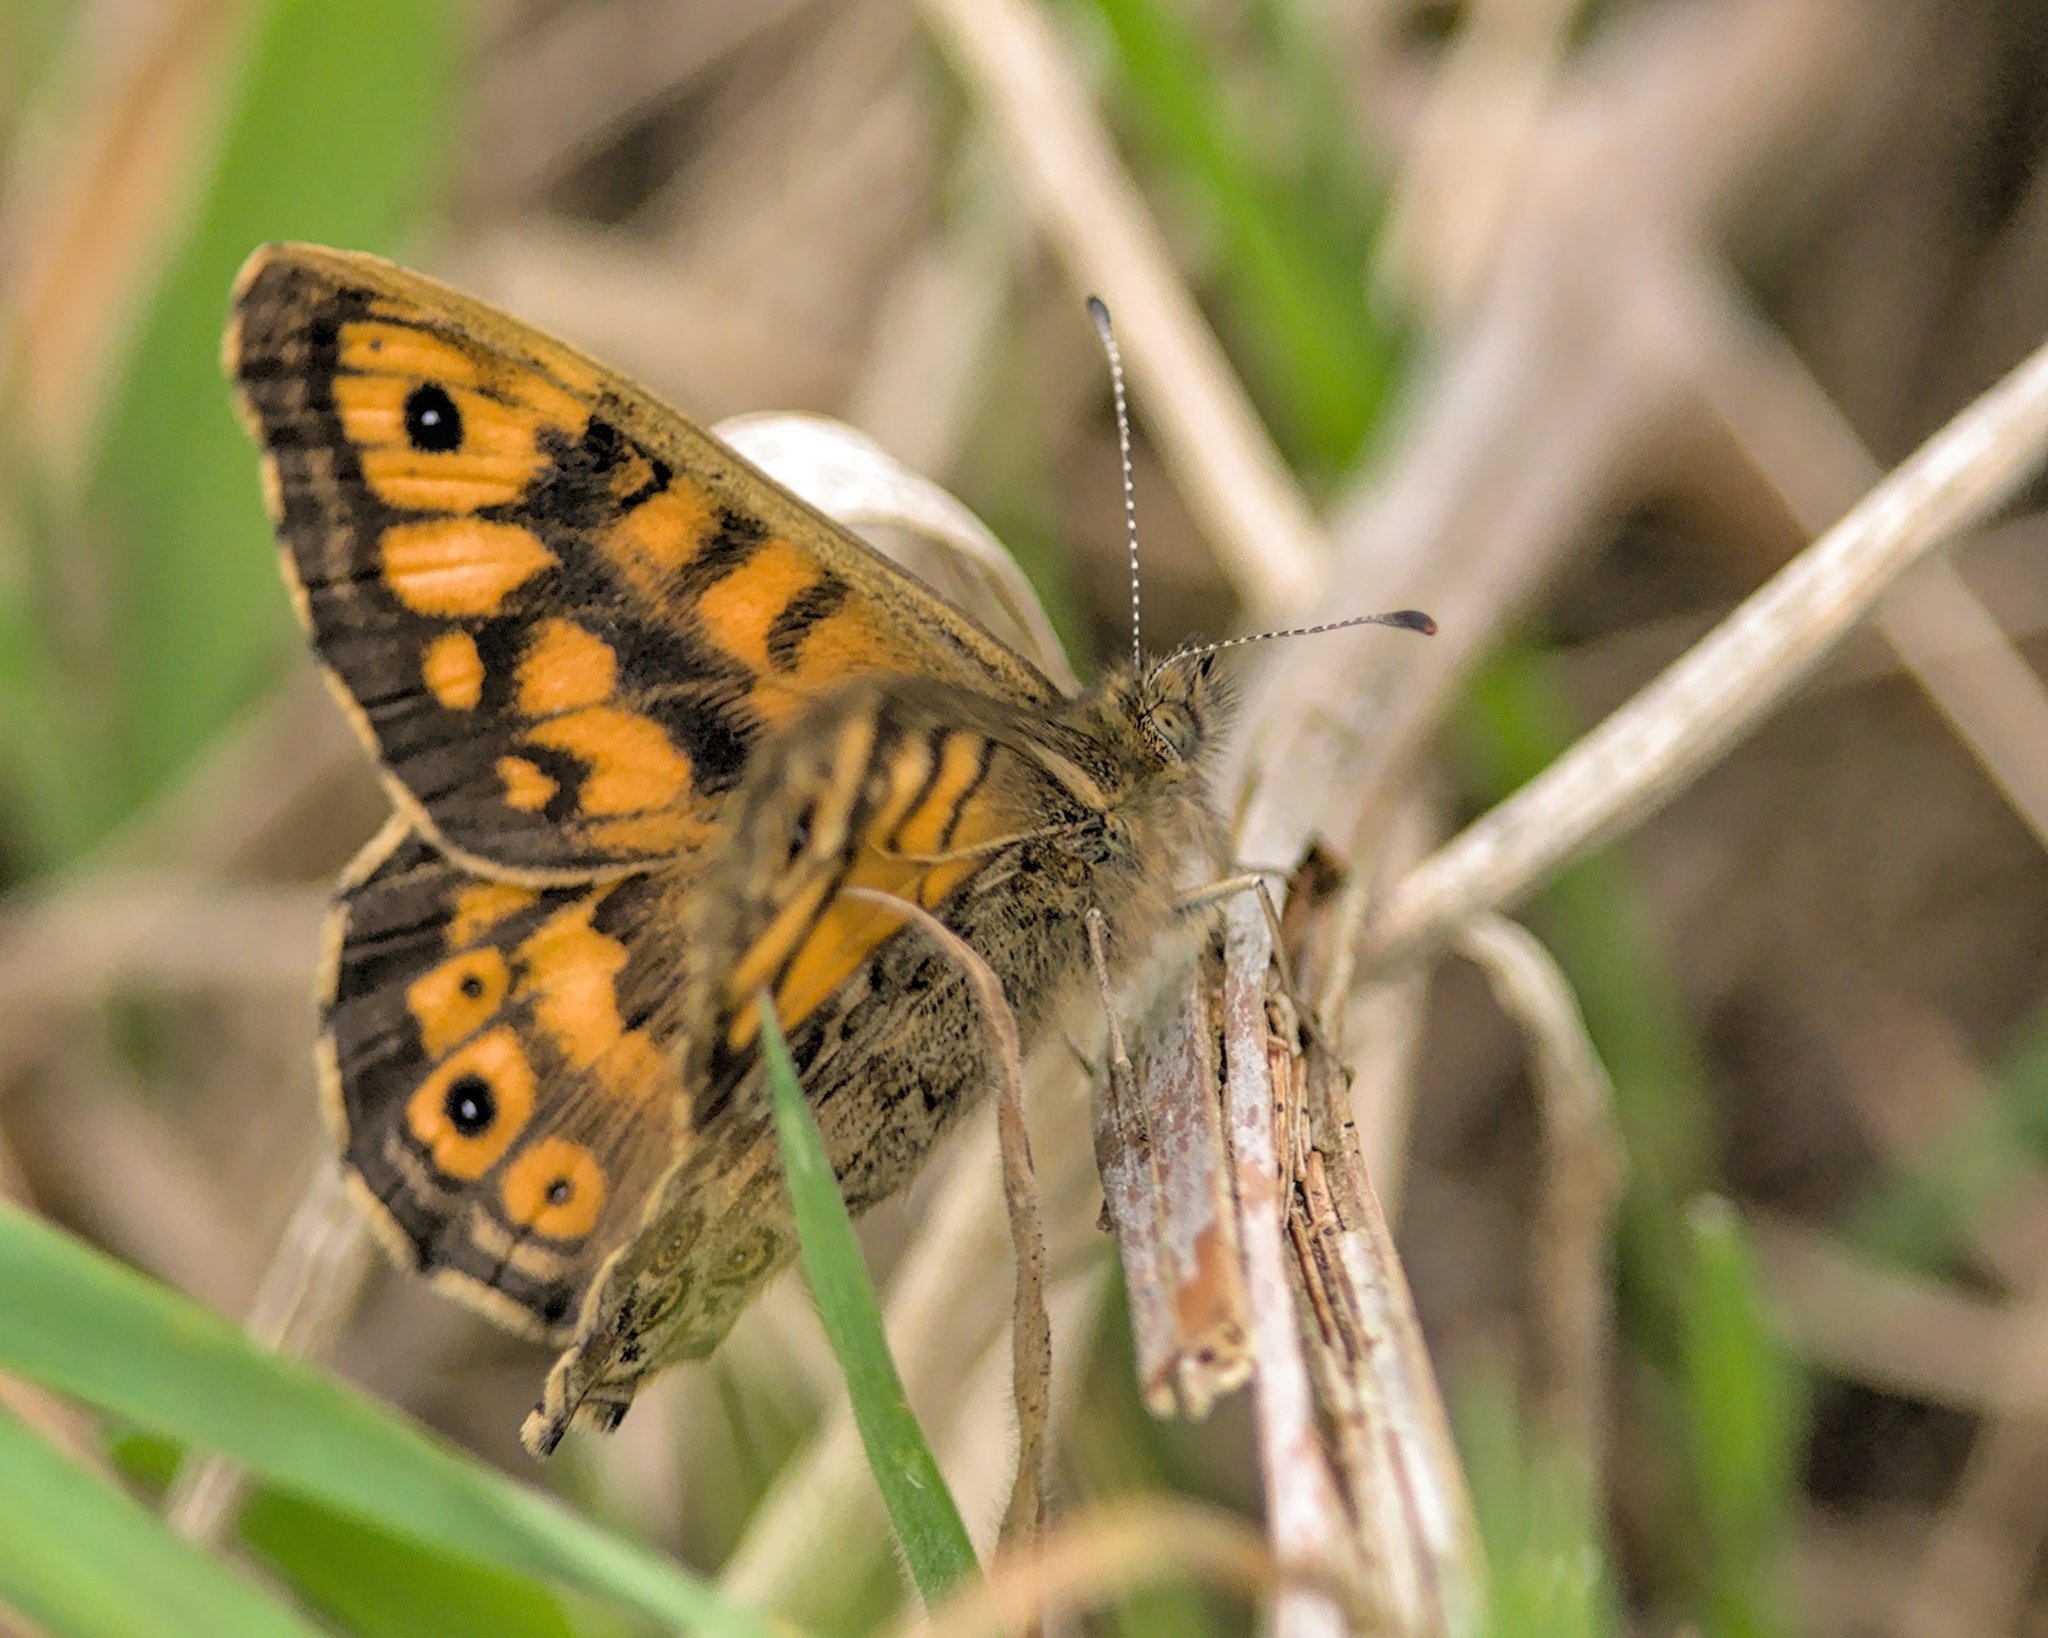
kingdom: Animalia
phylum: Arthropoda
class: Insecta
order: Lepidoptera
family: Nymphalidae
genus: Pararge
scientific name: Pararge Lasiommata megera
